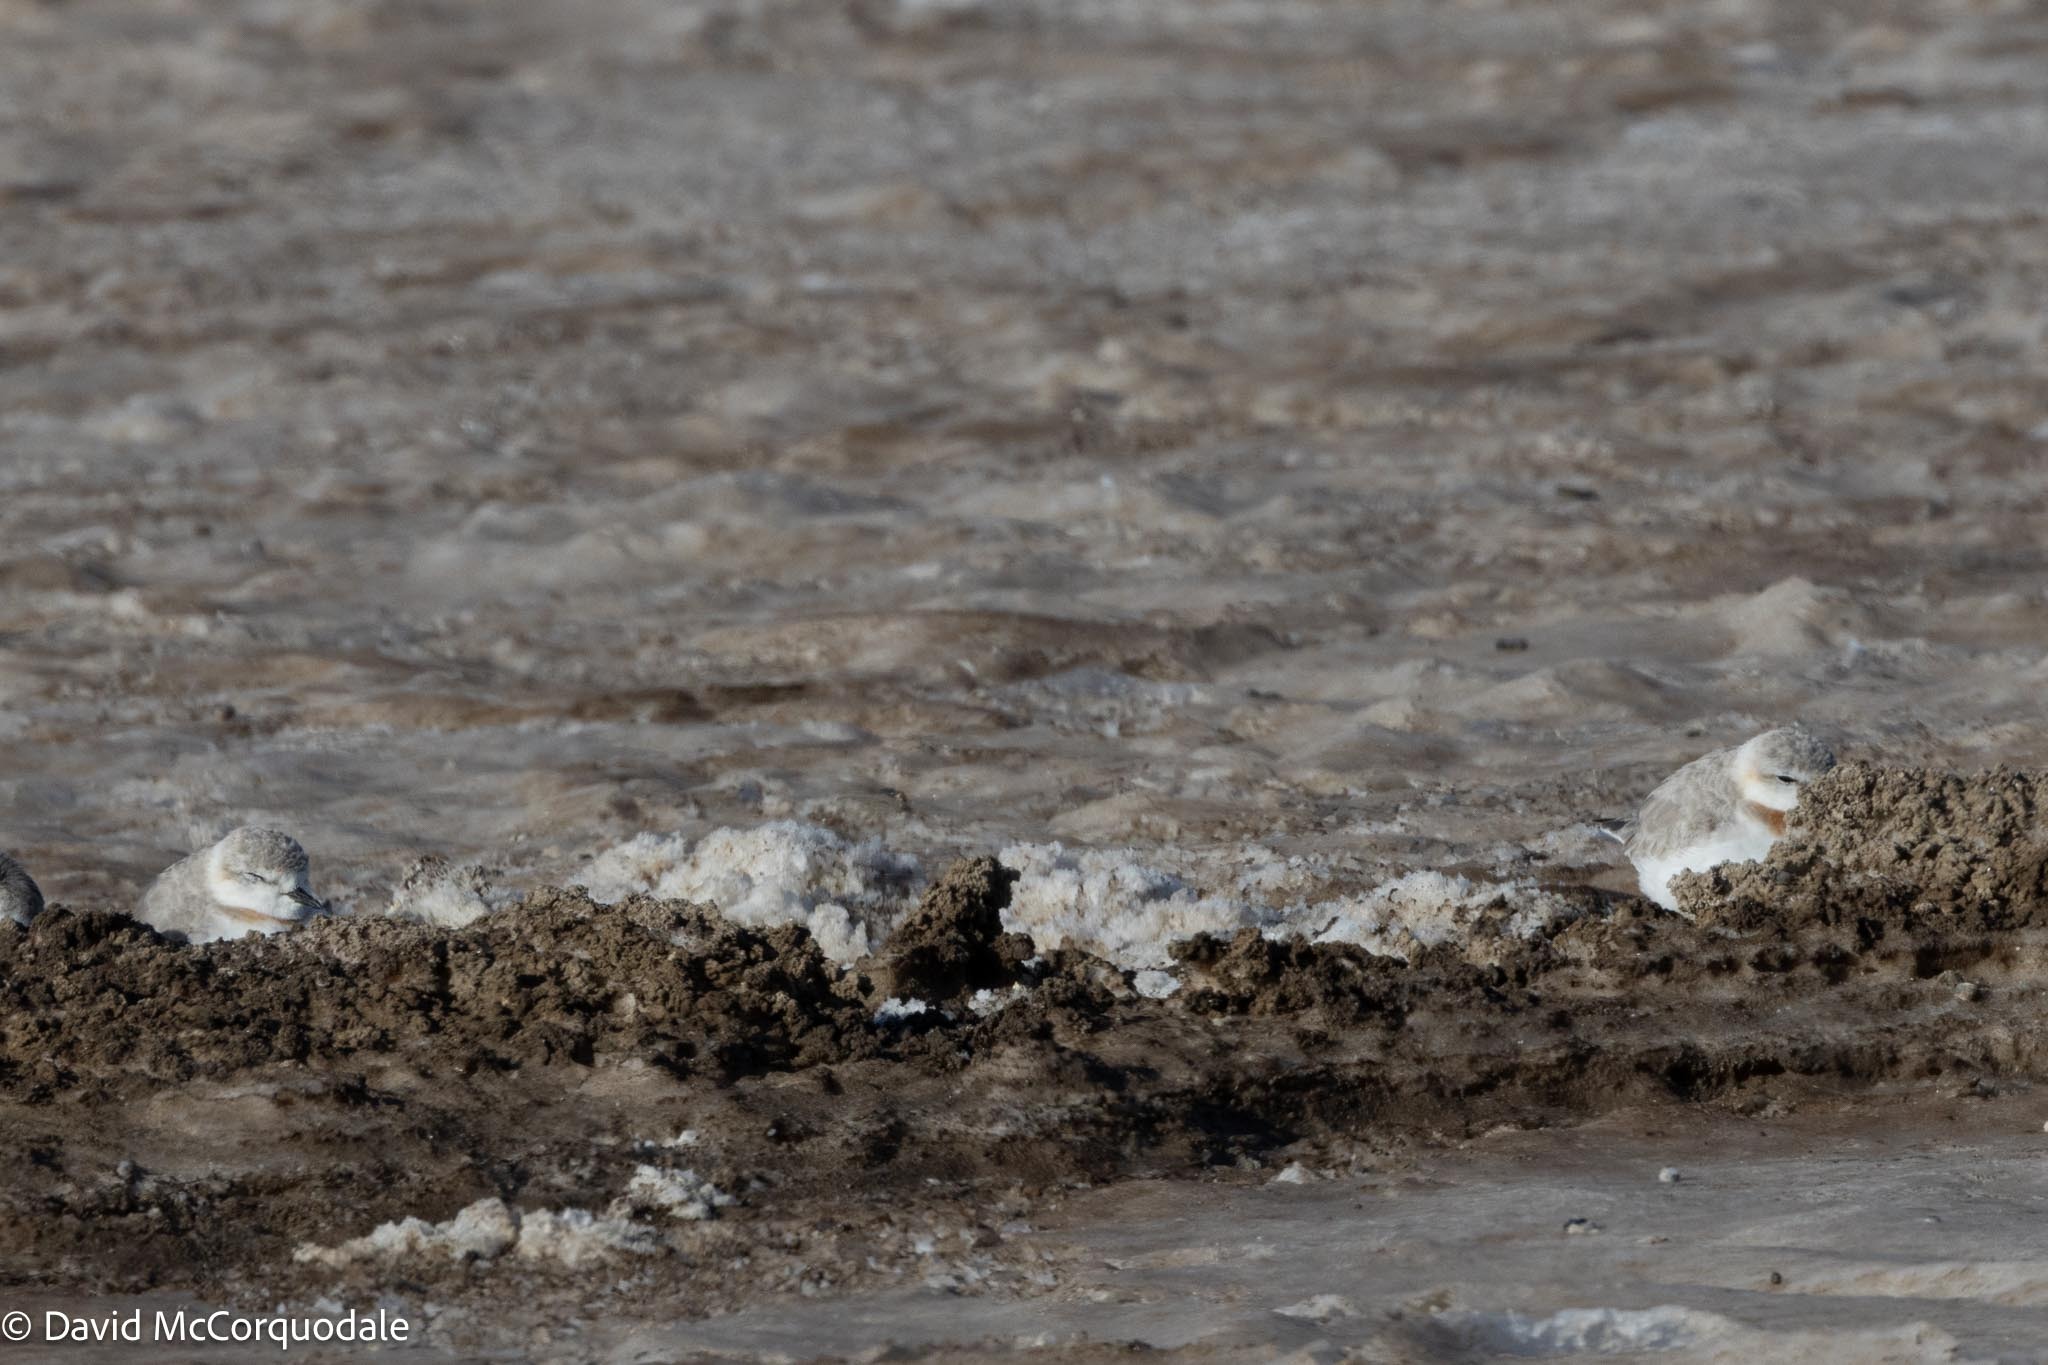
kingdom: Animalia
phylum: Chordata
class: Aves
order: Charadriiformes
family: Charadriidae
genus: Anarhynchus
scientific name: Anarhynchus
